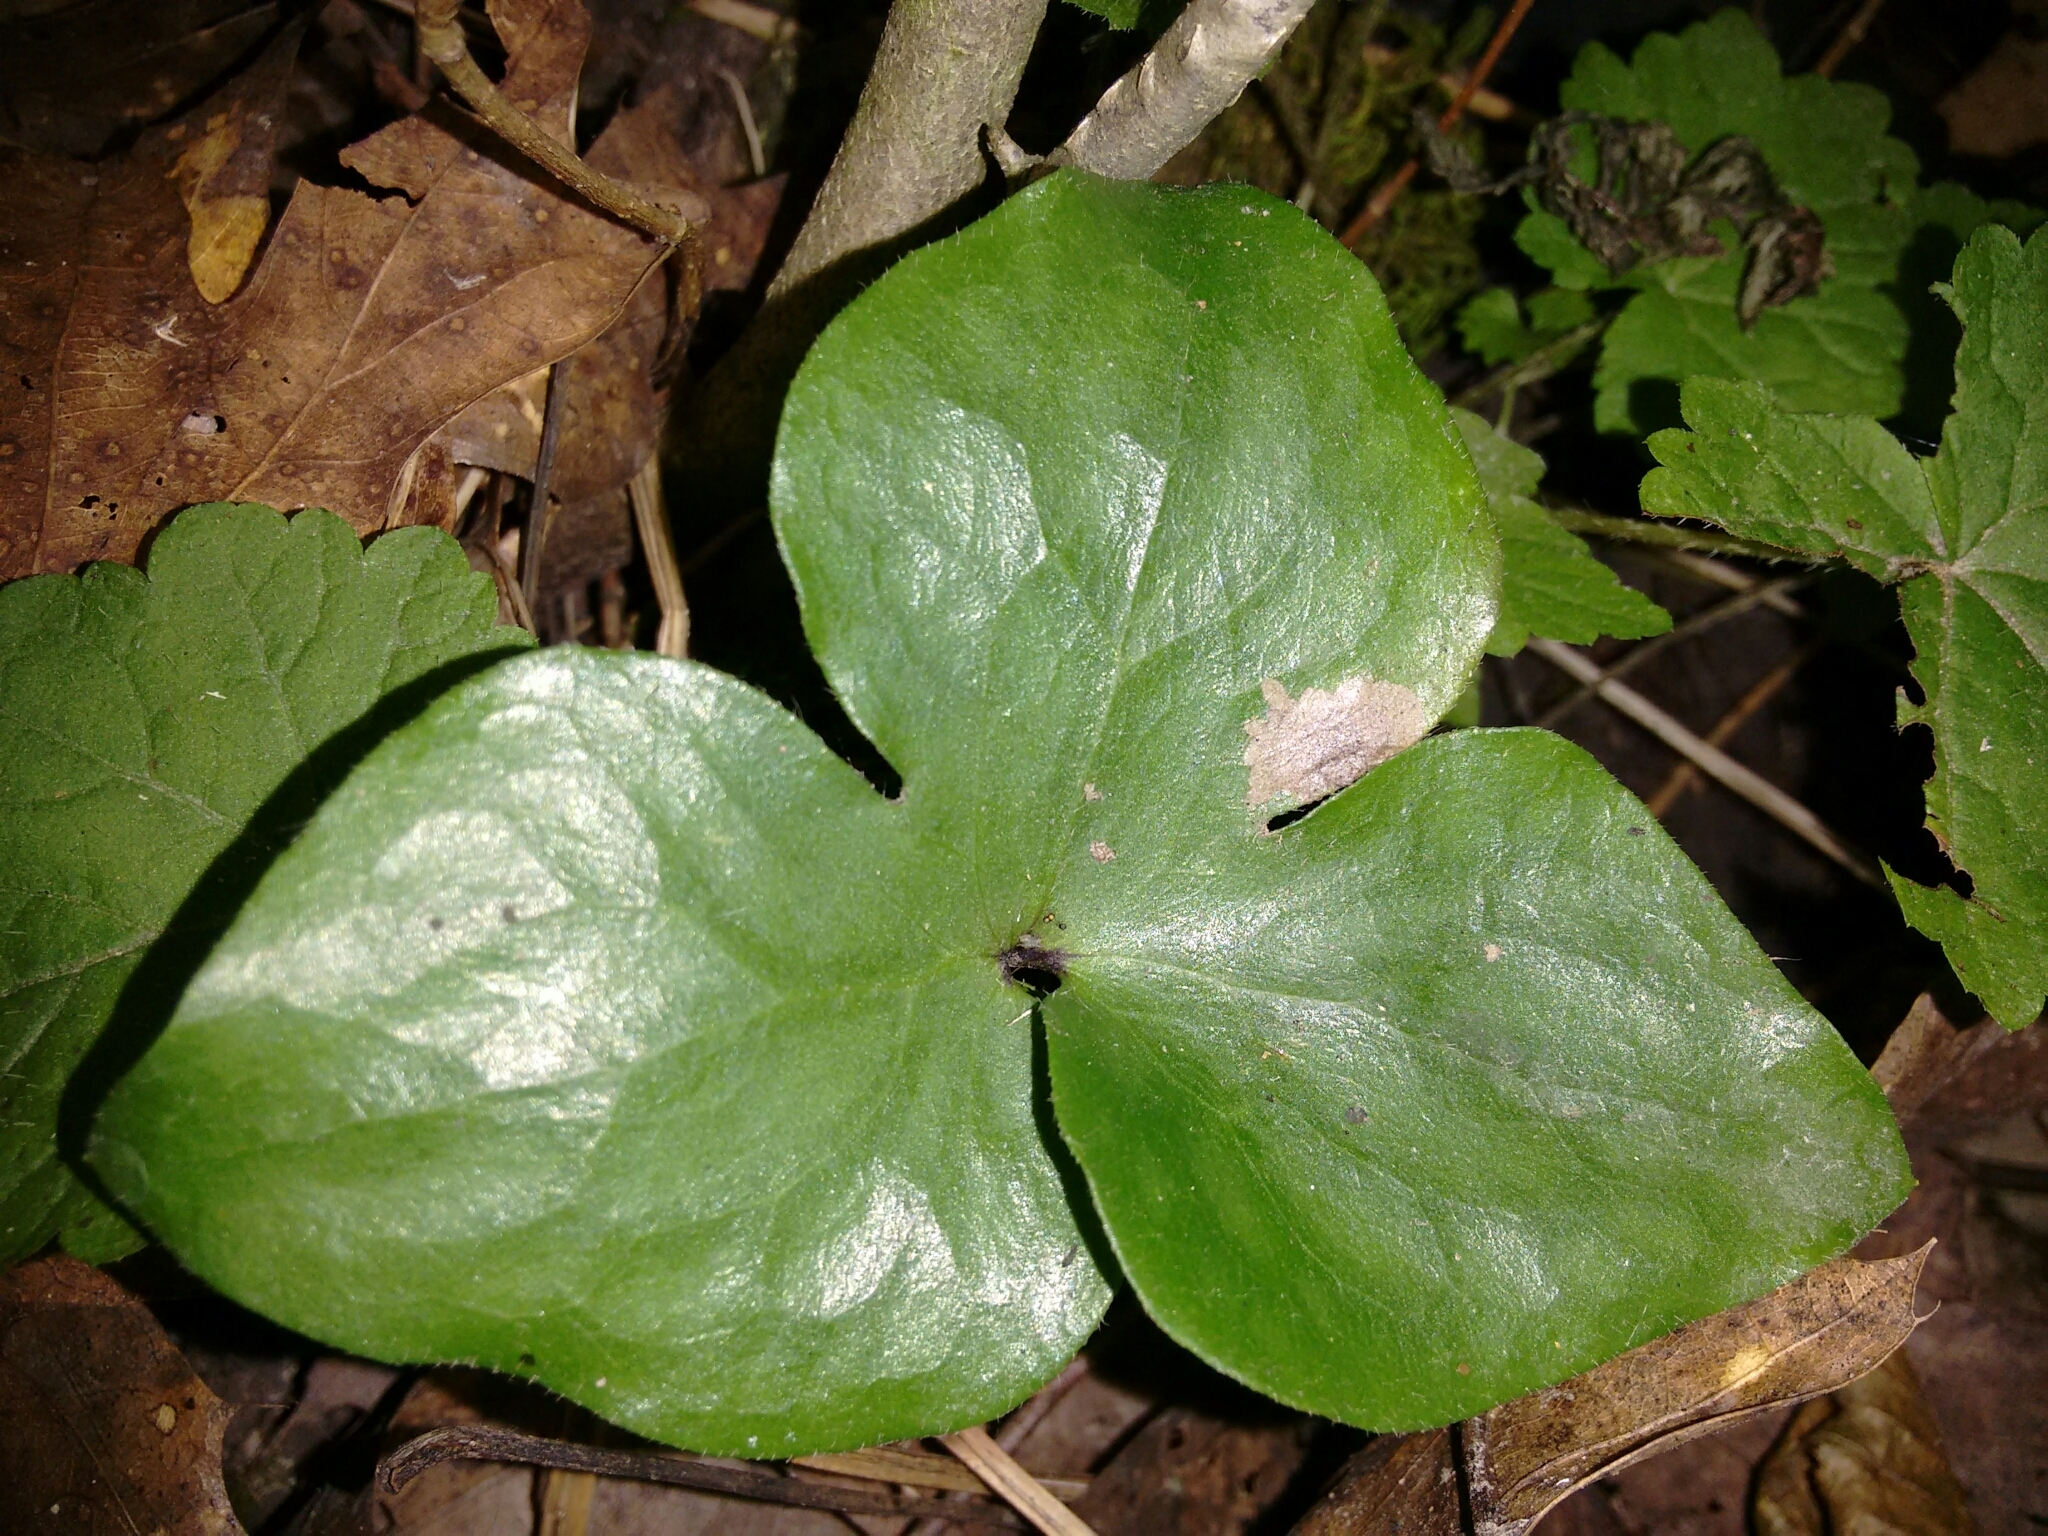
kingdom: Plantae
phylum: Tracheophyta
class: Magnoliopsida
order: Ranunculales
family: Ranunculaceae
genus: Hepatica
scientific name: Hepatica acutiloba
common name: Sharp-lobed hepatica
